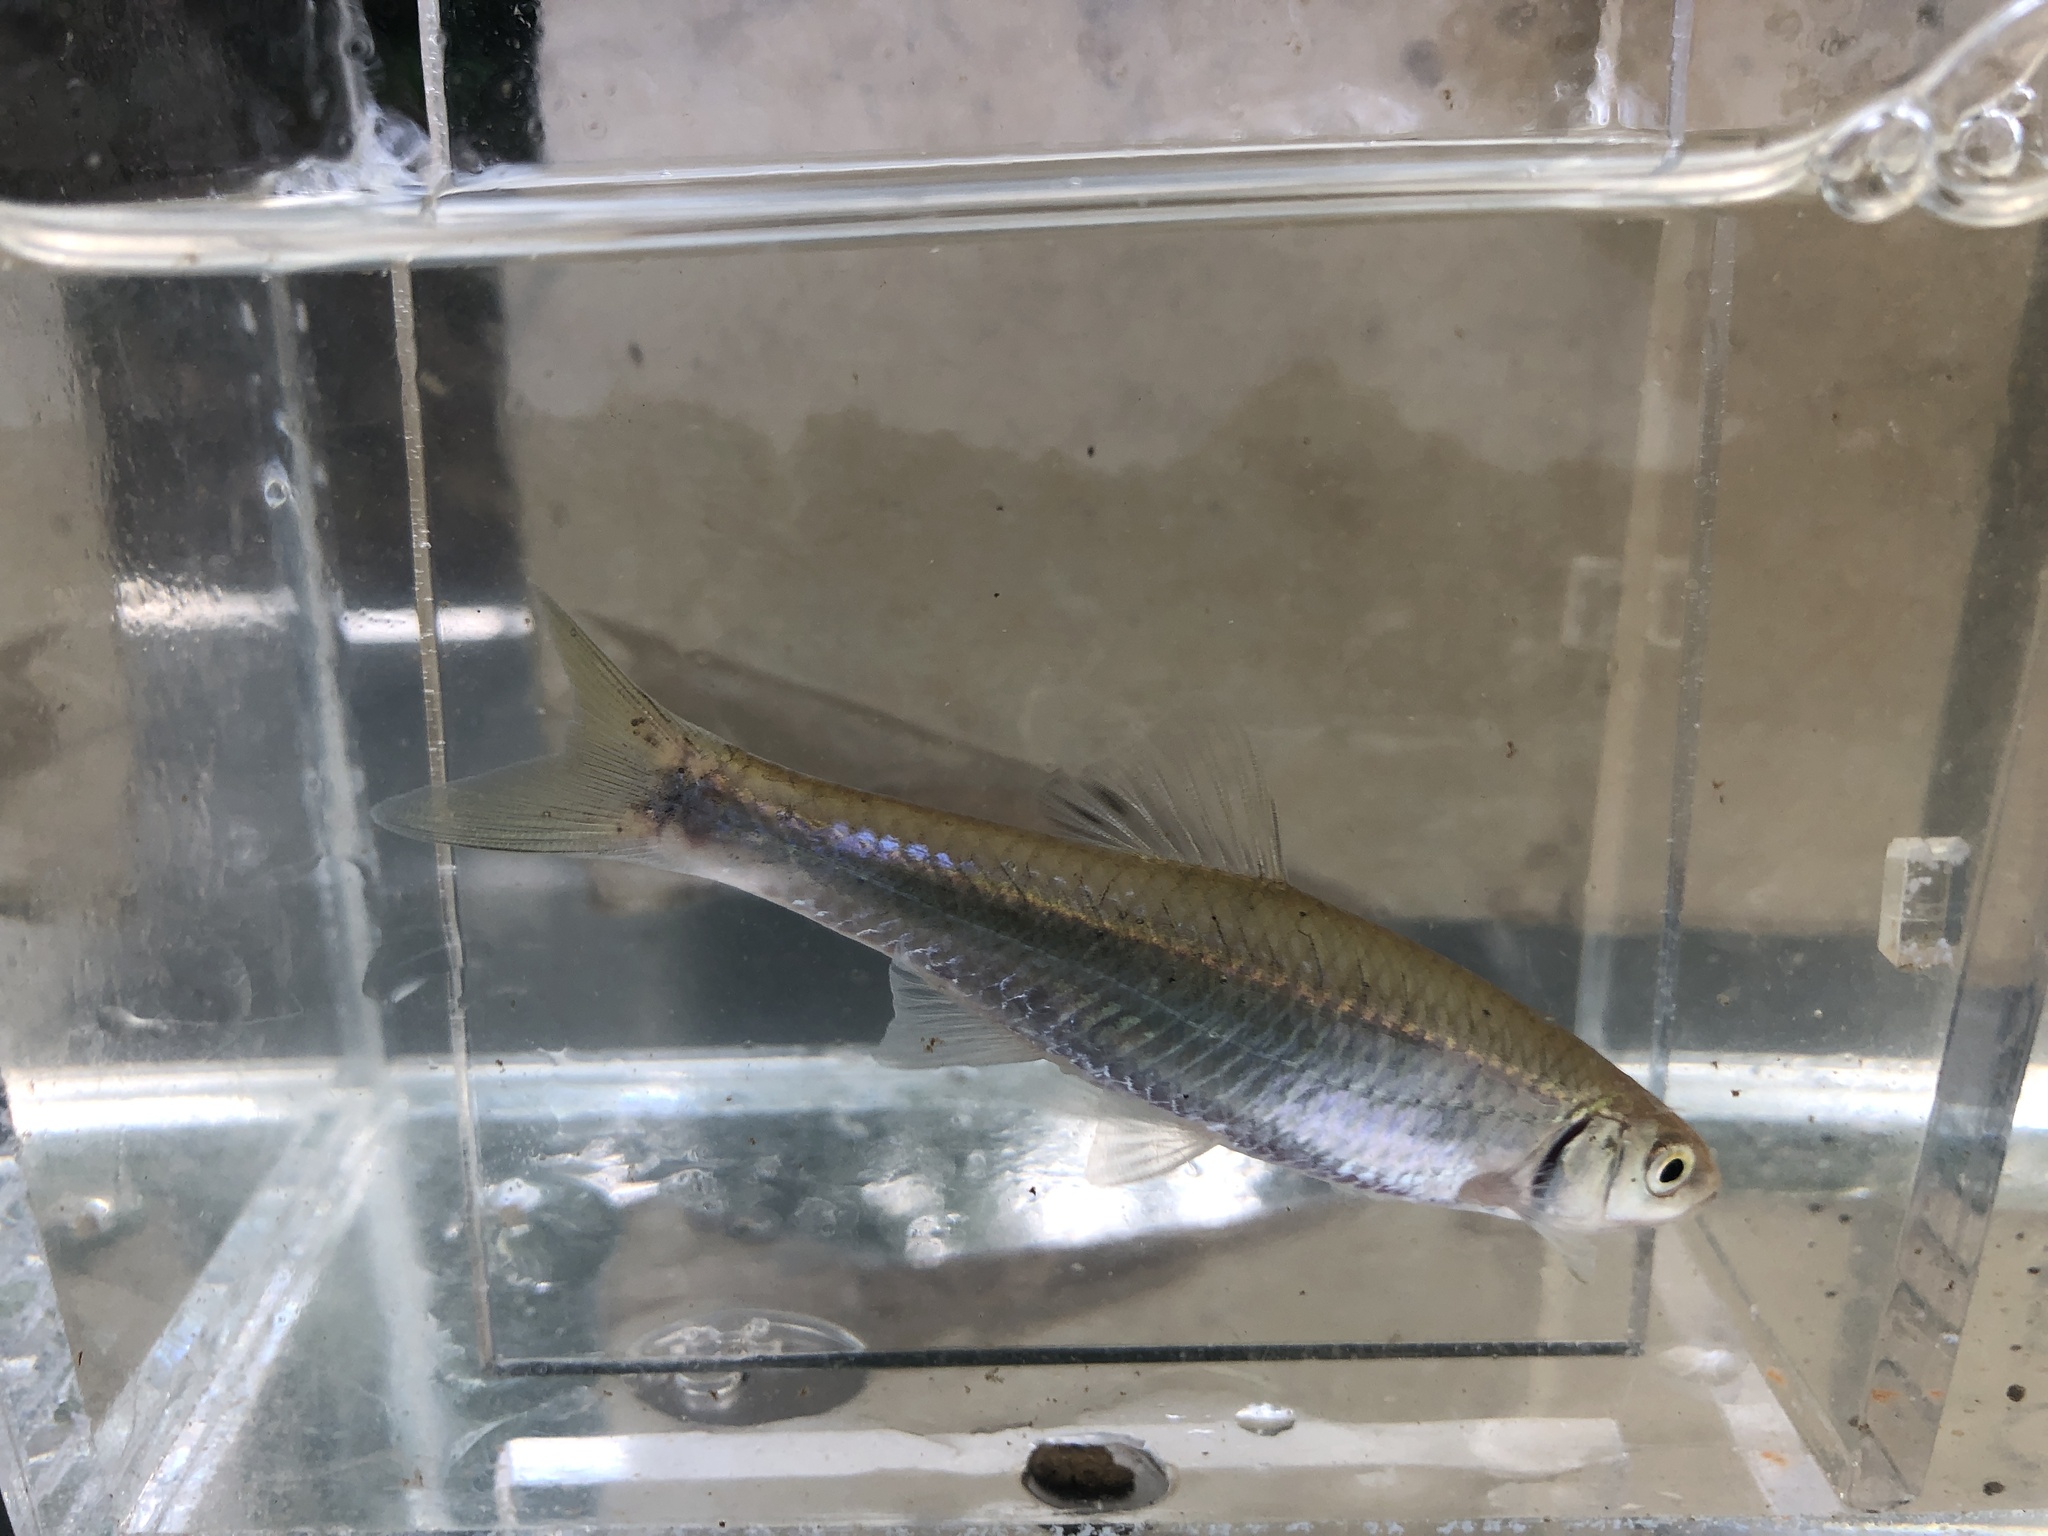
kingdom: Animalia
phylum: Chordata
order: Cypriniformes
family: Cyprinidae
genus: Cyprinella
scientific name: Cyprinella spiloptera
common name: Spotfin shiner
